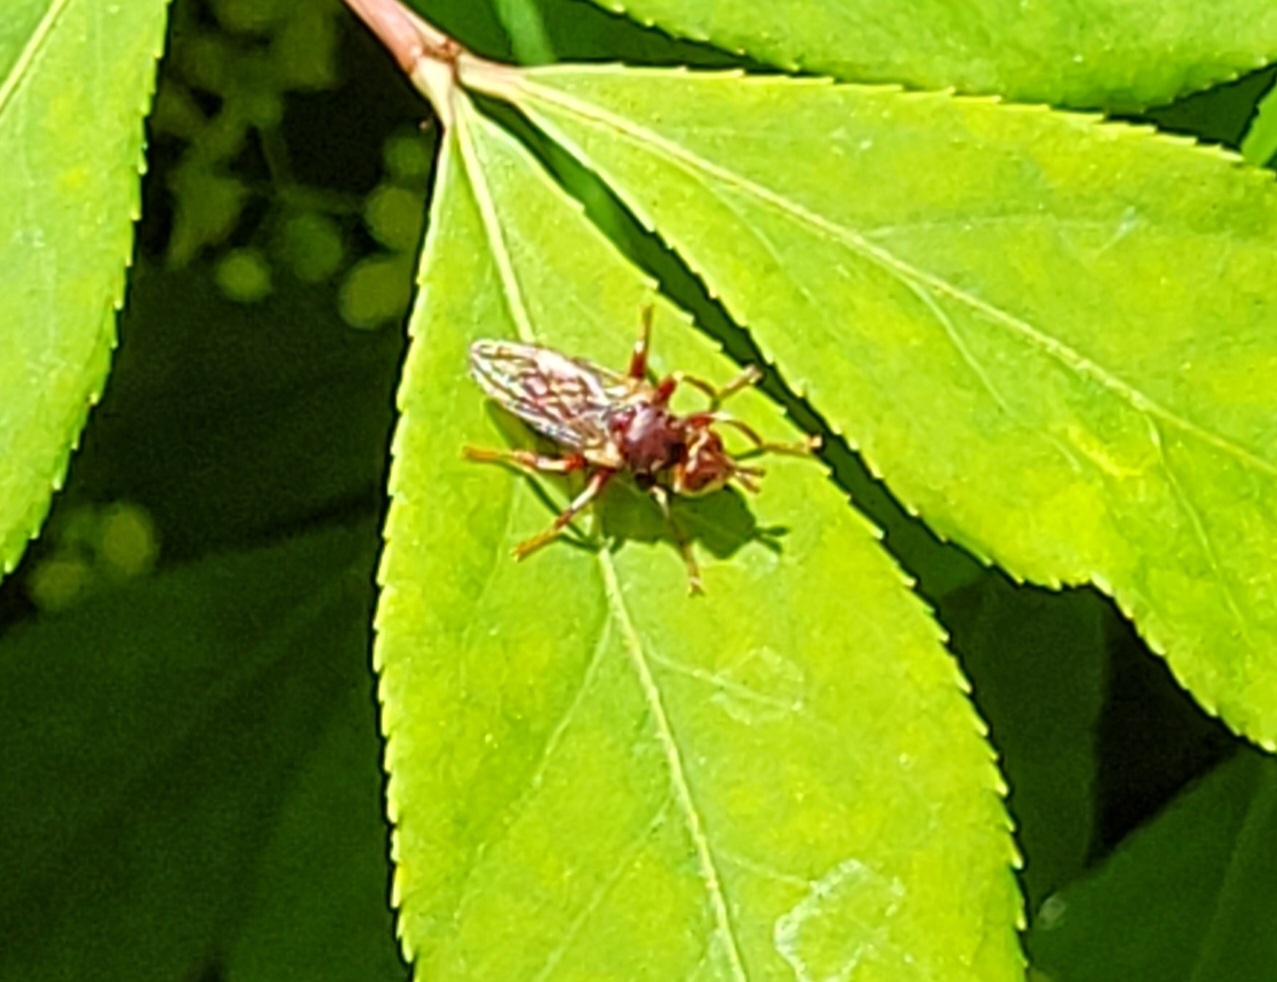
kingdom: Animalia
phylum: Arthropoda
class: Insecta
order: Diptera
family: Conopidae
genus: Myopa
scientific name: Myopa clausa
